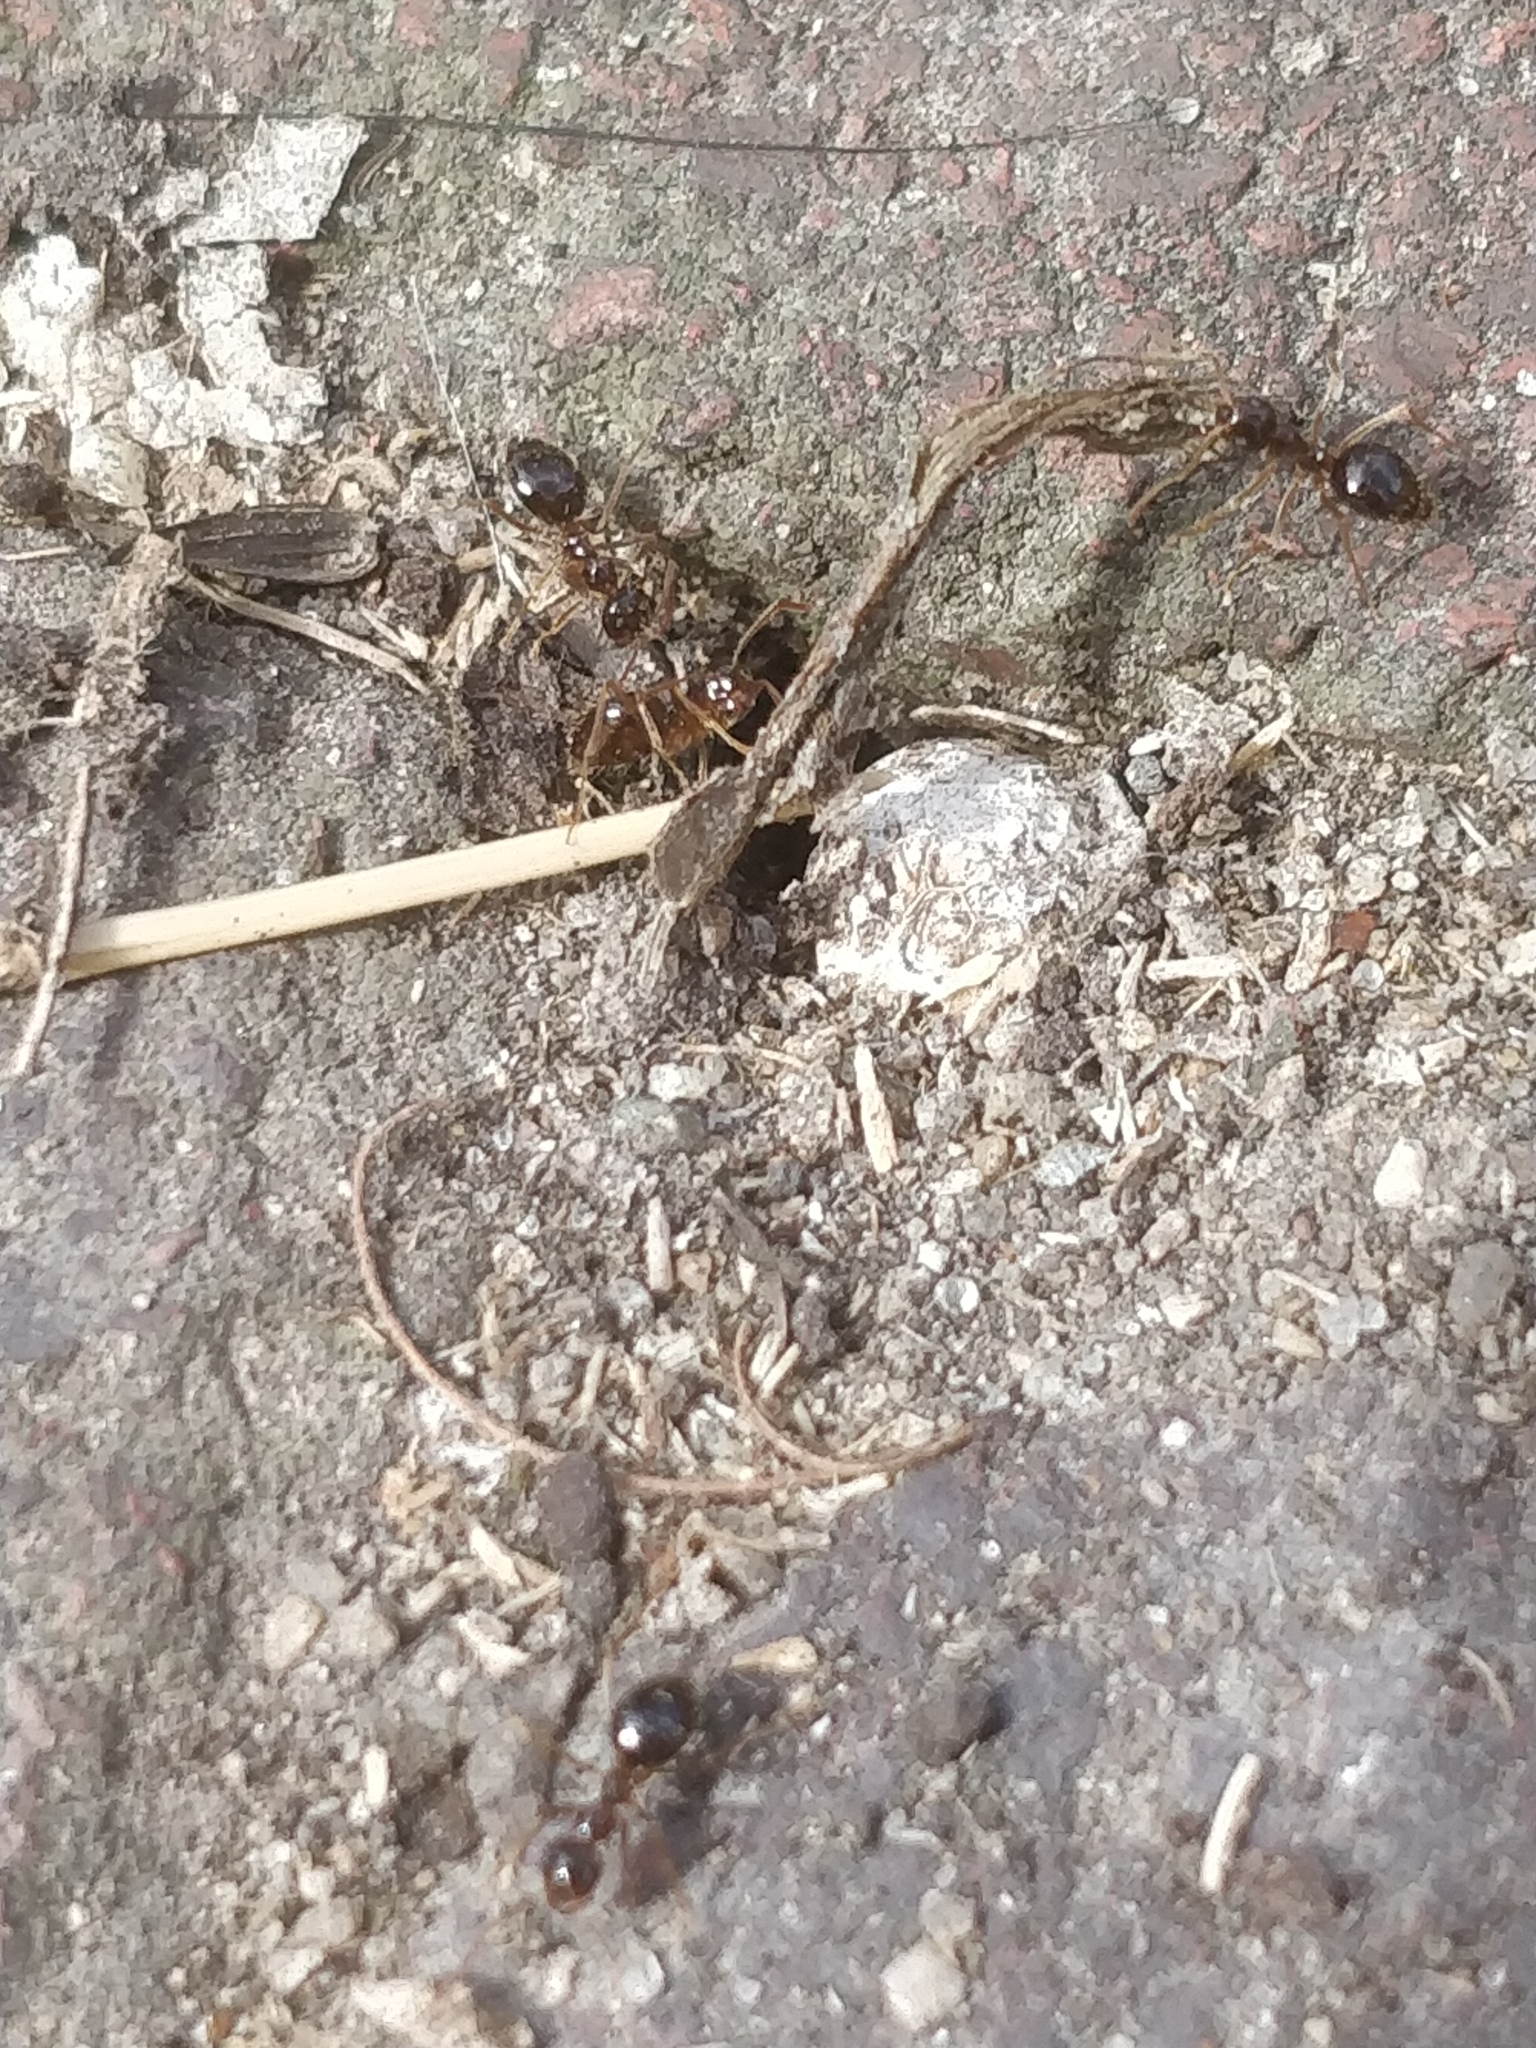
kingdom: Animalia
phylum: Arthropoda
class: Insecta
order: Hymenoptera
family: Formicidae
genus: Prenolepis
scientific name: Prenolepis imparis
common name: Small honey ant
